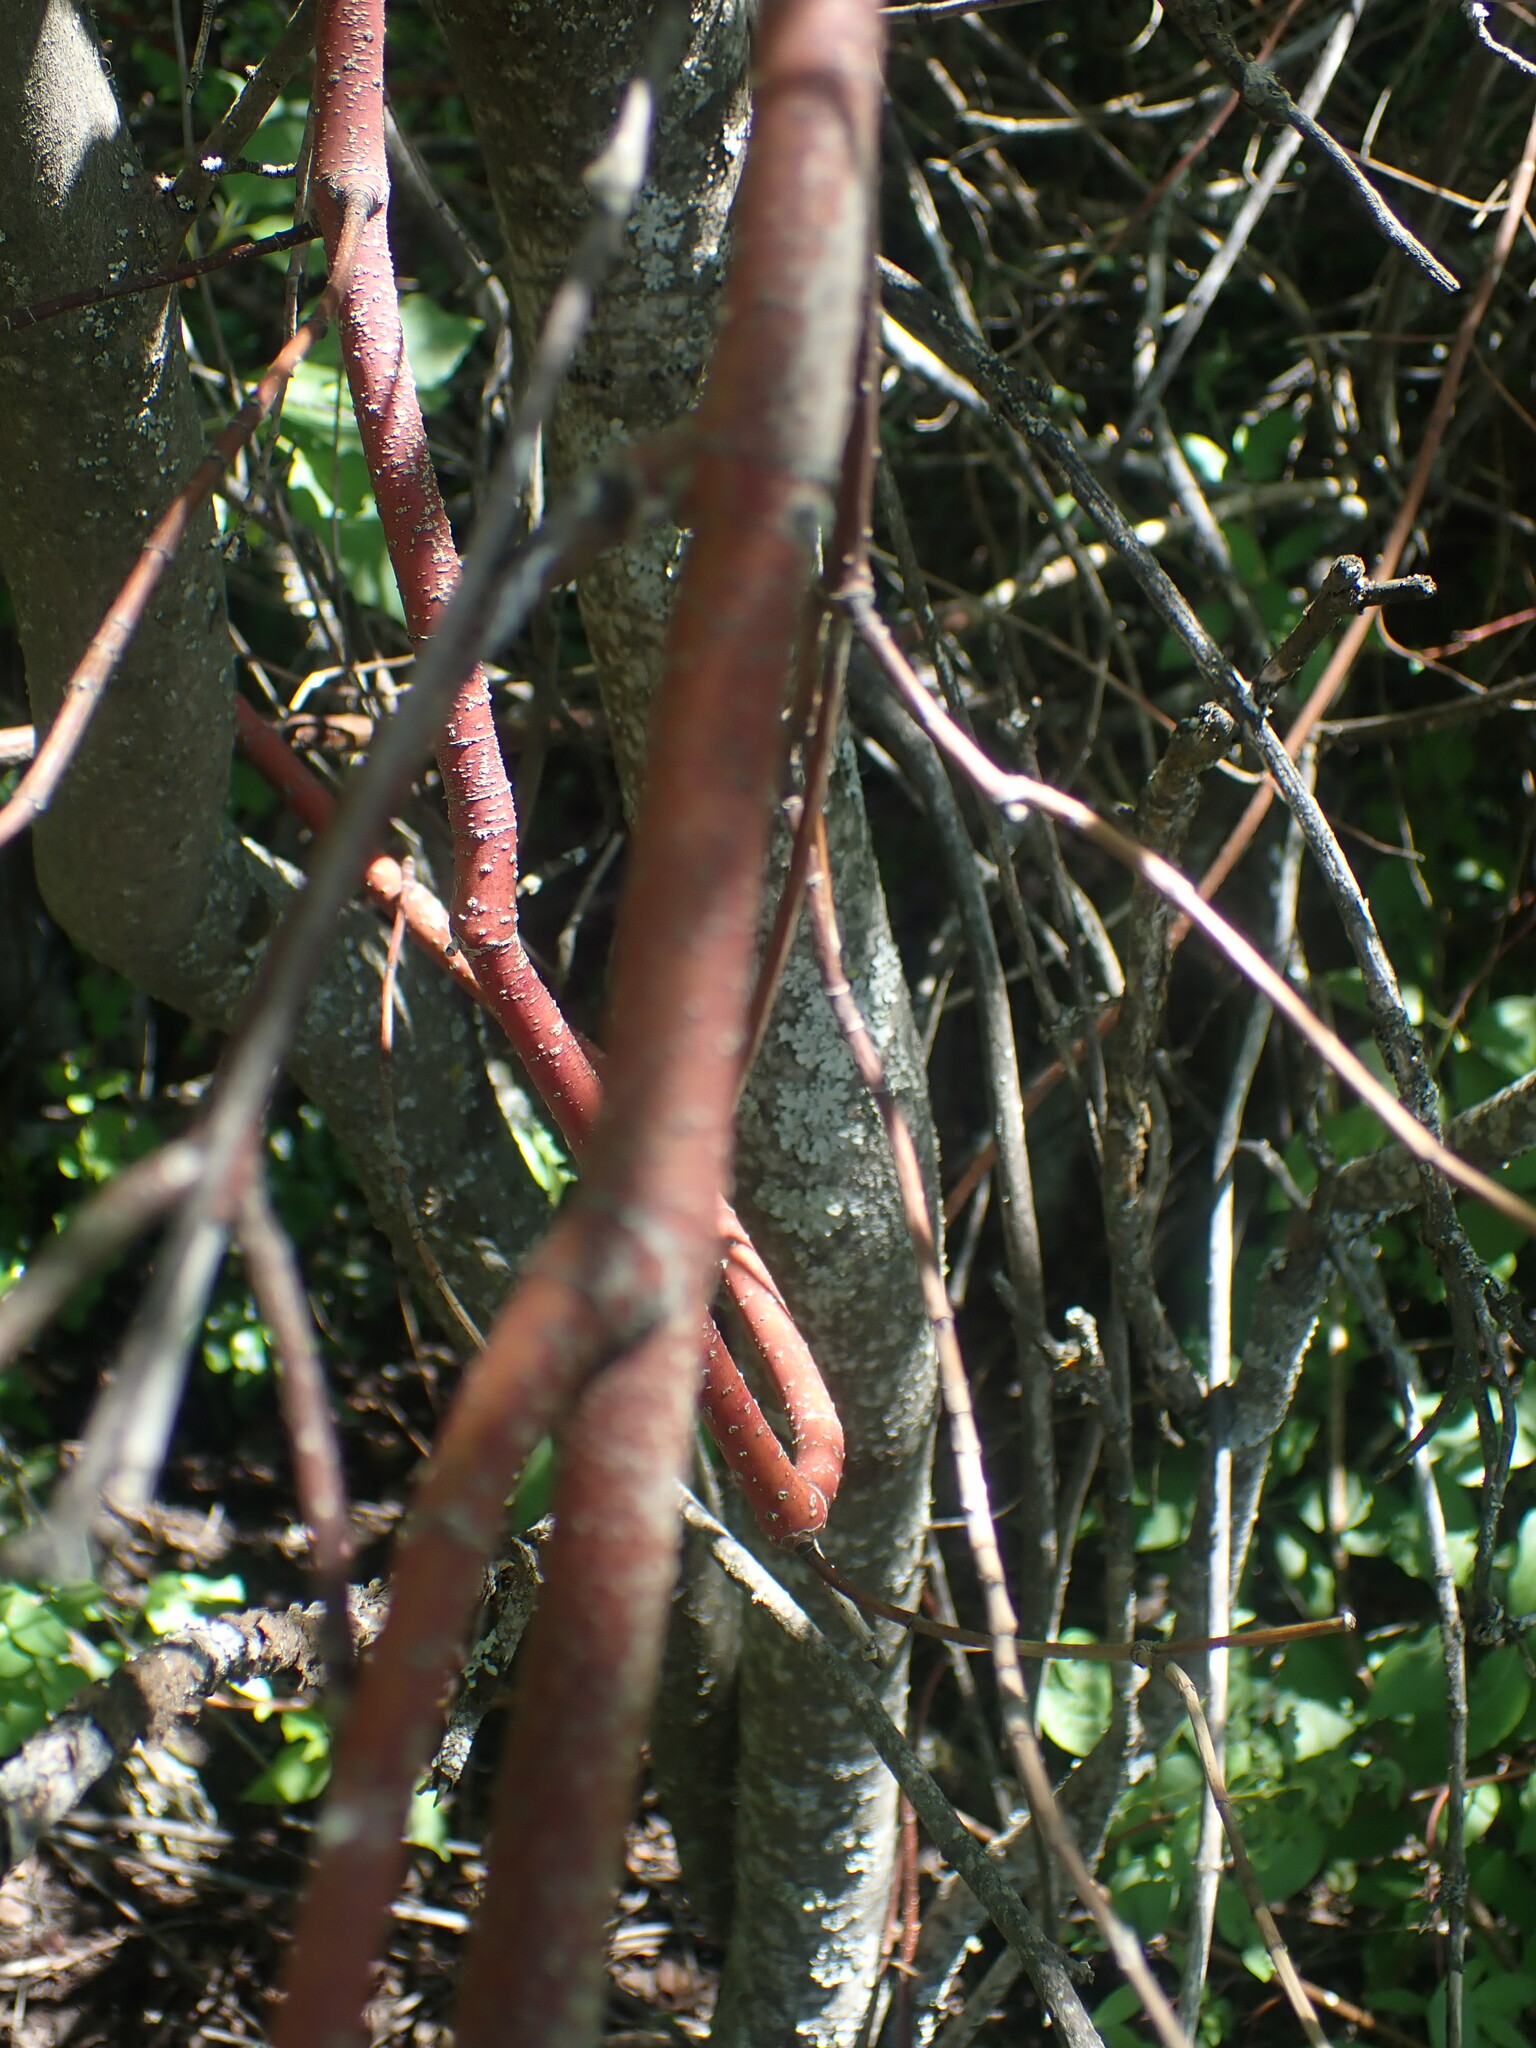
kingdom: Plantae
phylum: Tracheophyta
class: Magnoliopsida
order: Cornales
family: Cornaceae
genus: Cornus
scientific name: Cornus sericea
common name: Red-osier dogwood
